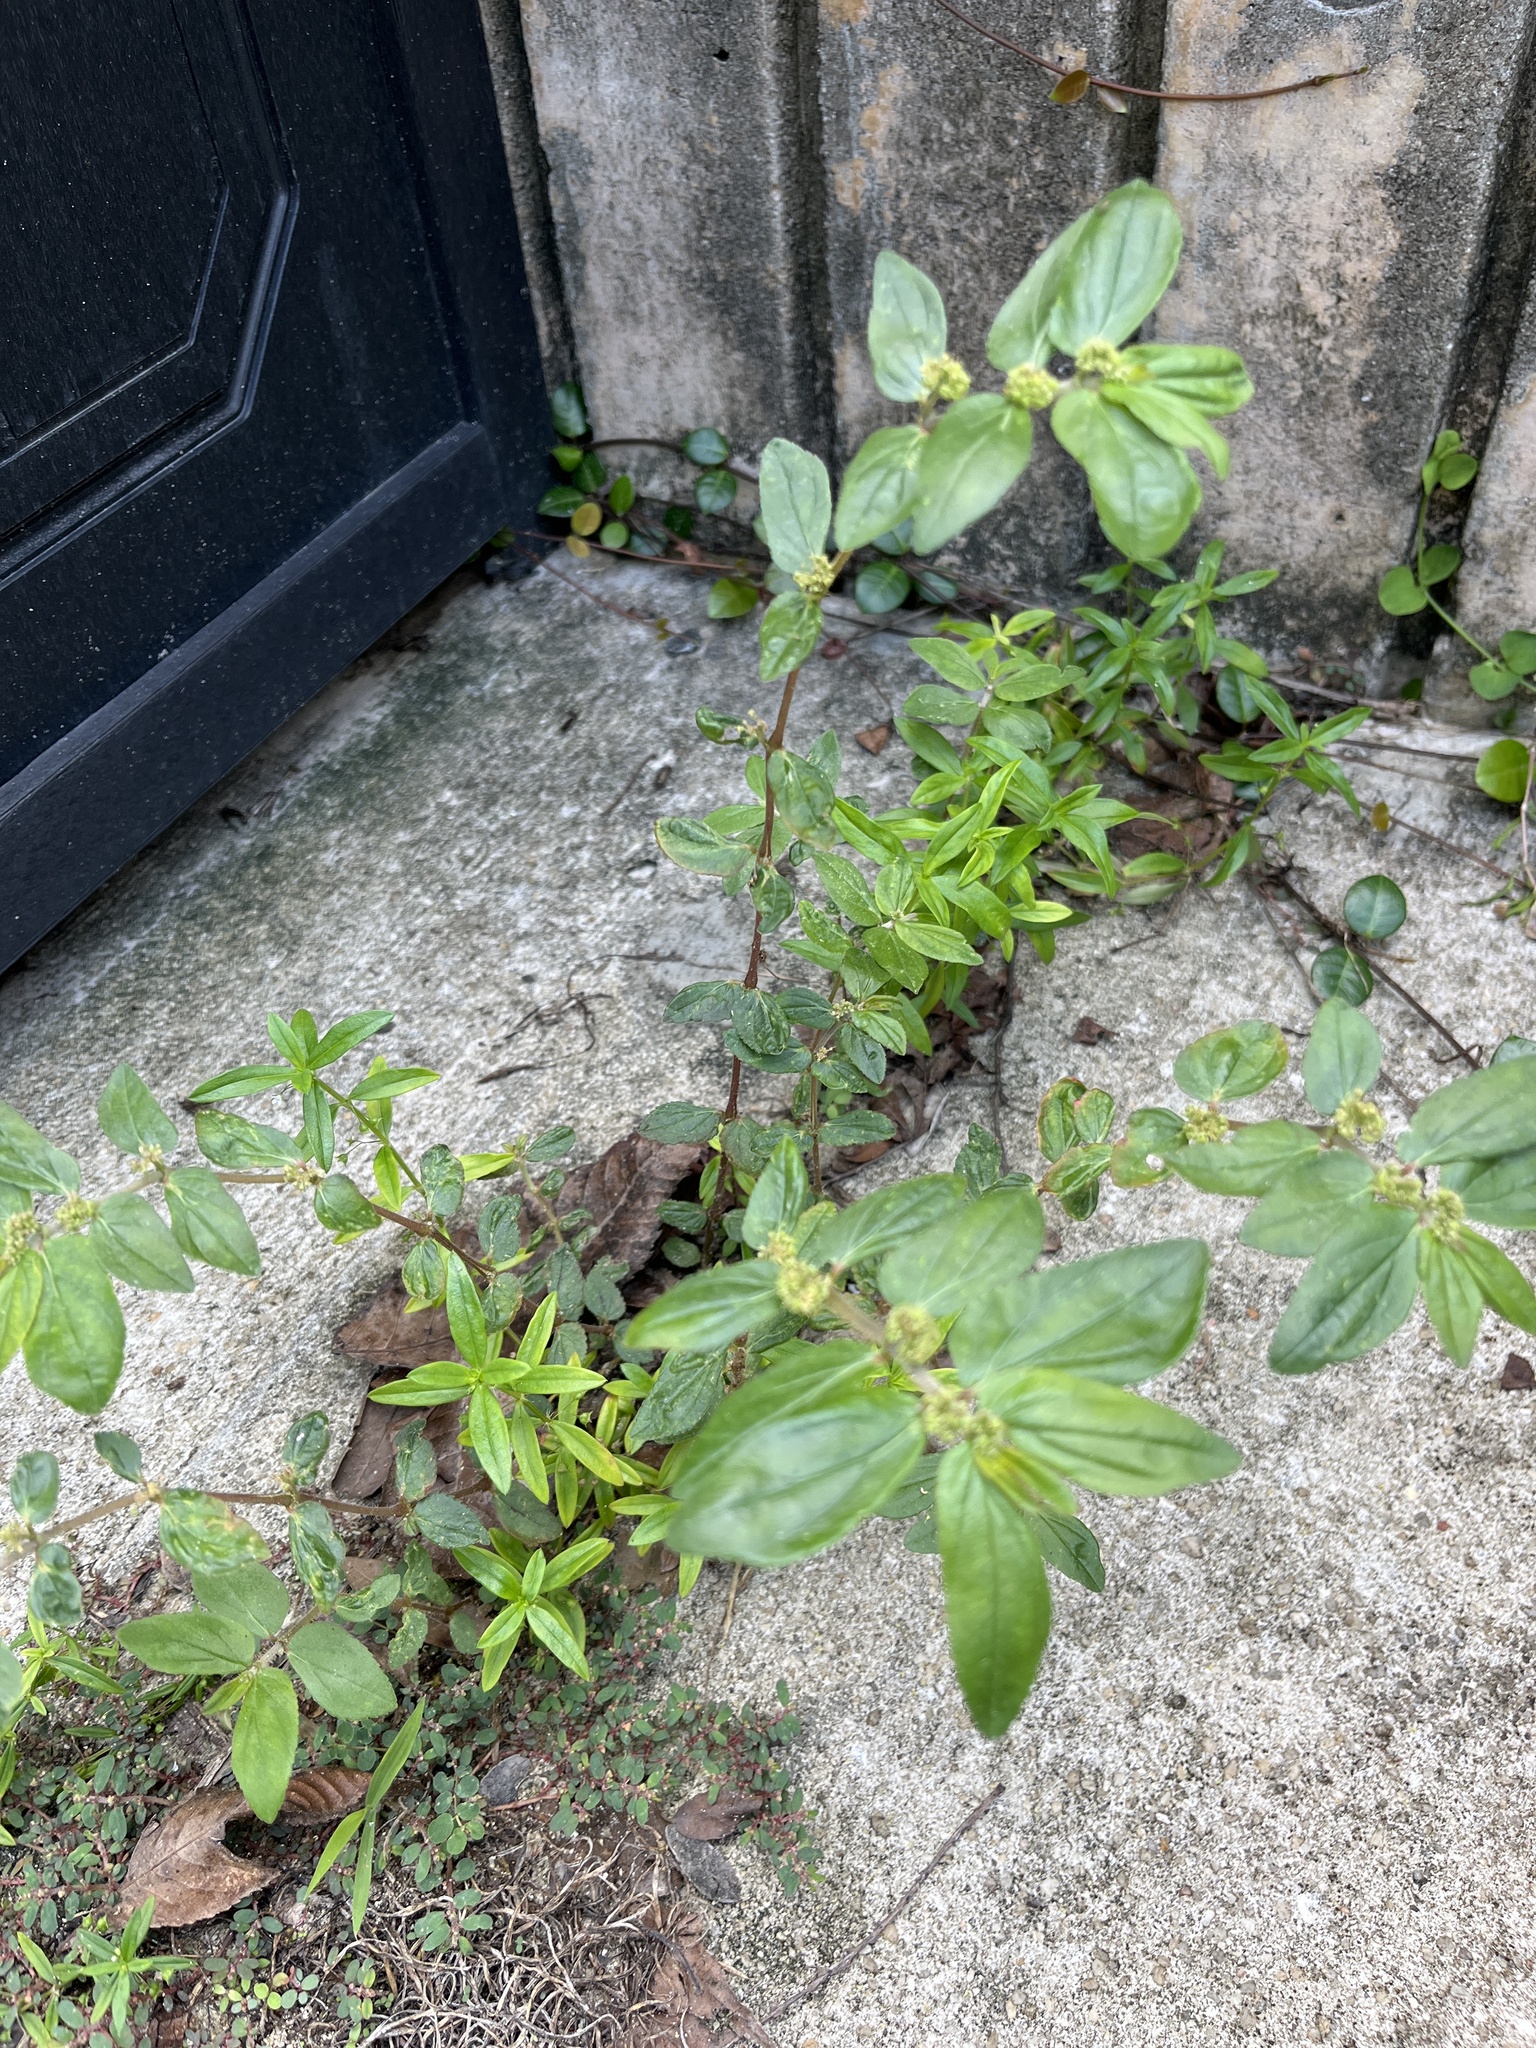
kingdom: Plantae
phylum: Tracheophyta
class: Magnoliopsida
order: Malpighiales
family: Euphorbiaceae
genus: Euphorbia
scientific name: Euphorbia hirta
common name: Pillpod sandmat
